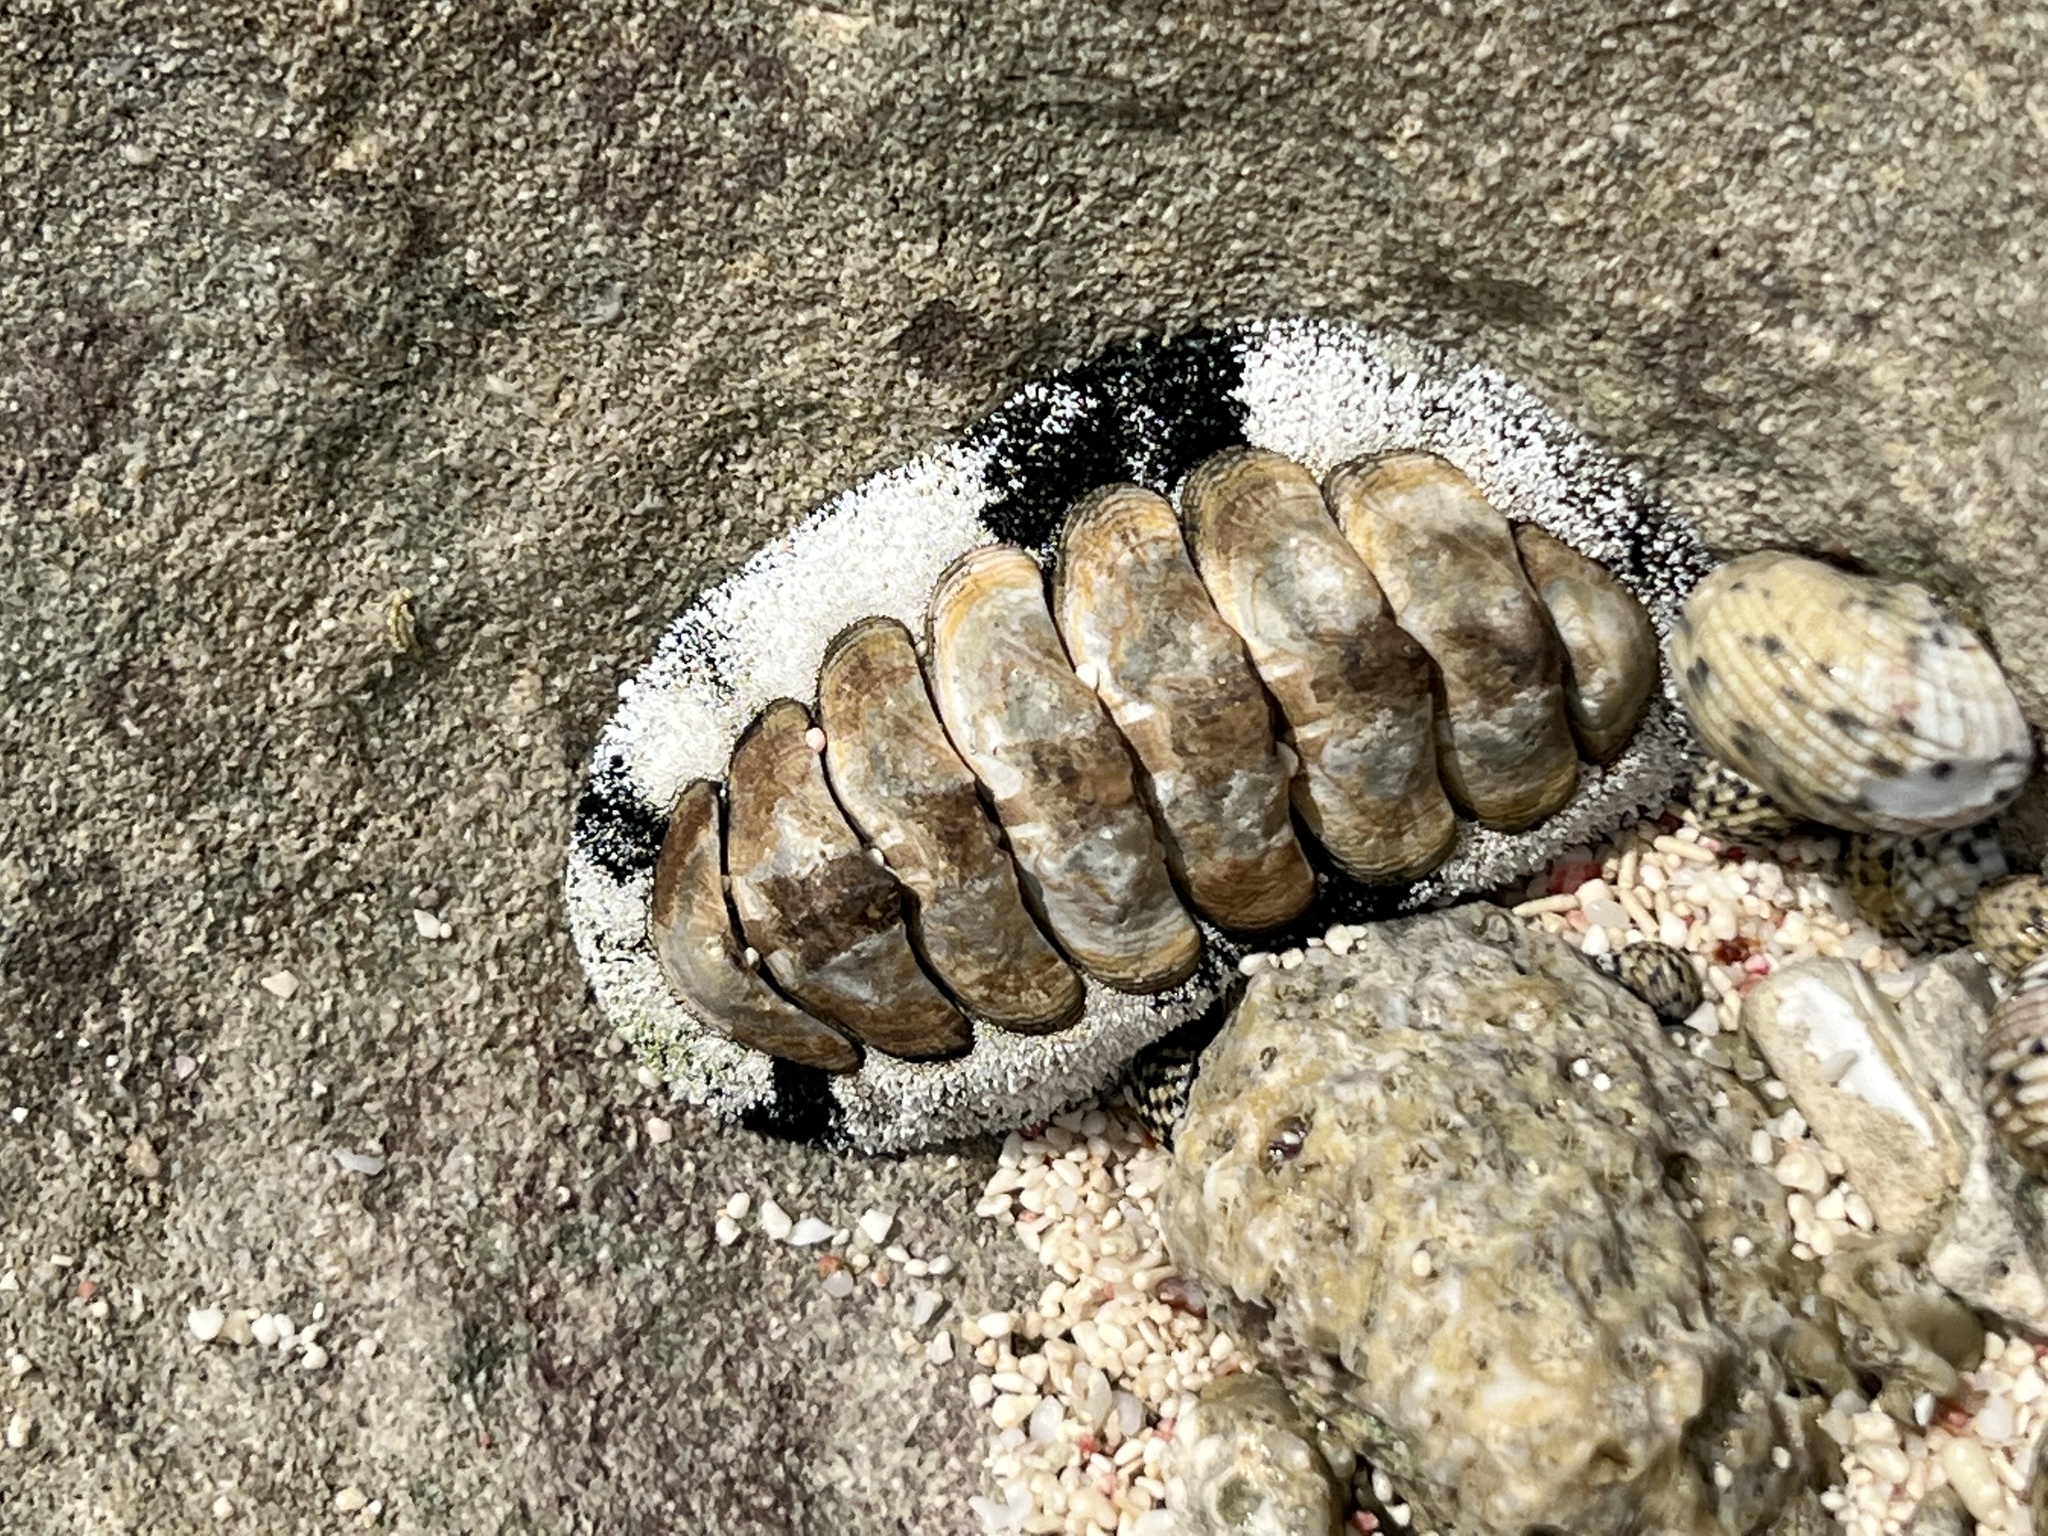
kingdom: Animalia
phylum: Mollusca
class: Polyplacophora
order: Chitonida
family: Chitonidae
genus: Acanthopleura
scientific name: Acanthopleura granulata
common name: West indian fuzzy chiton
